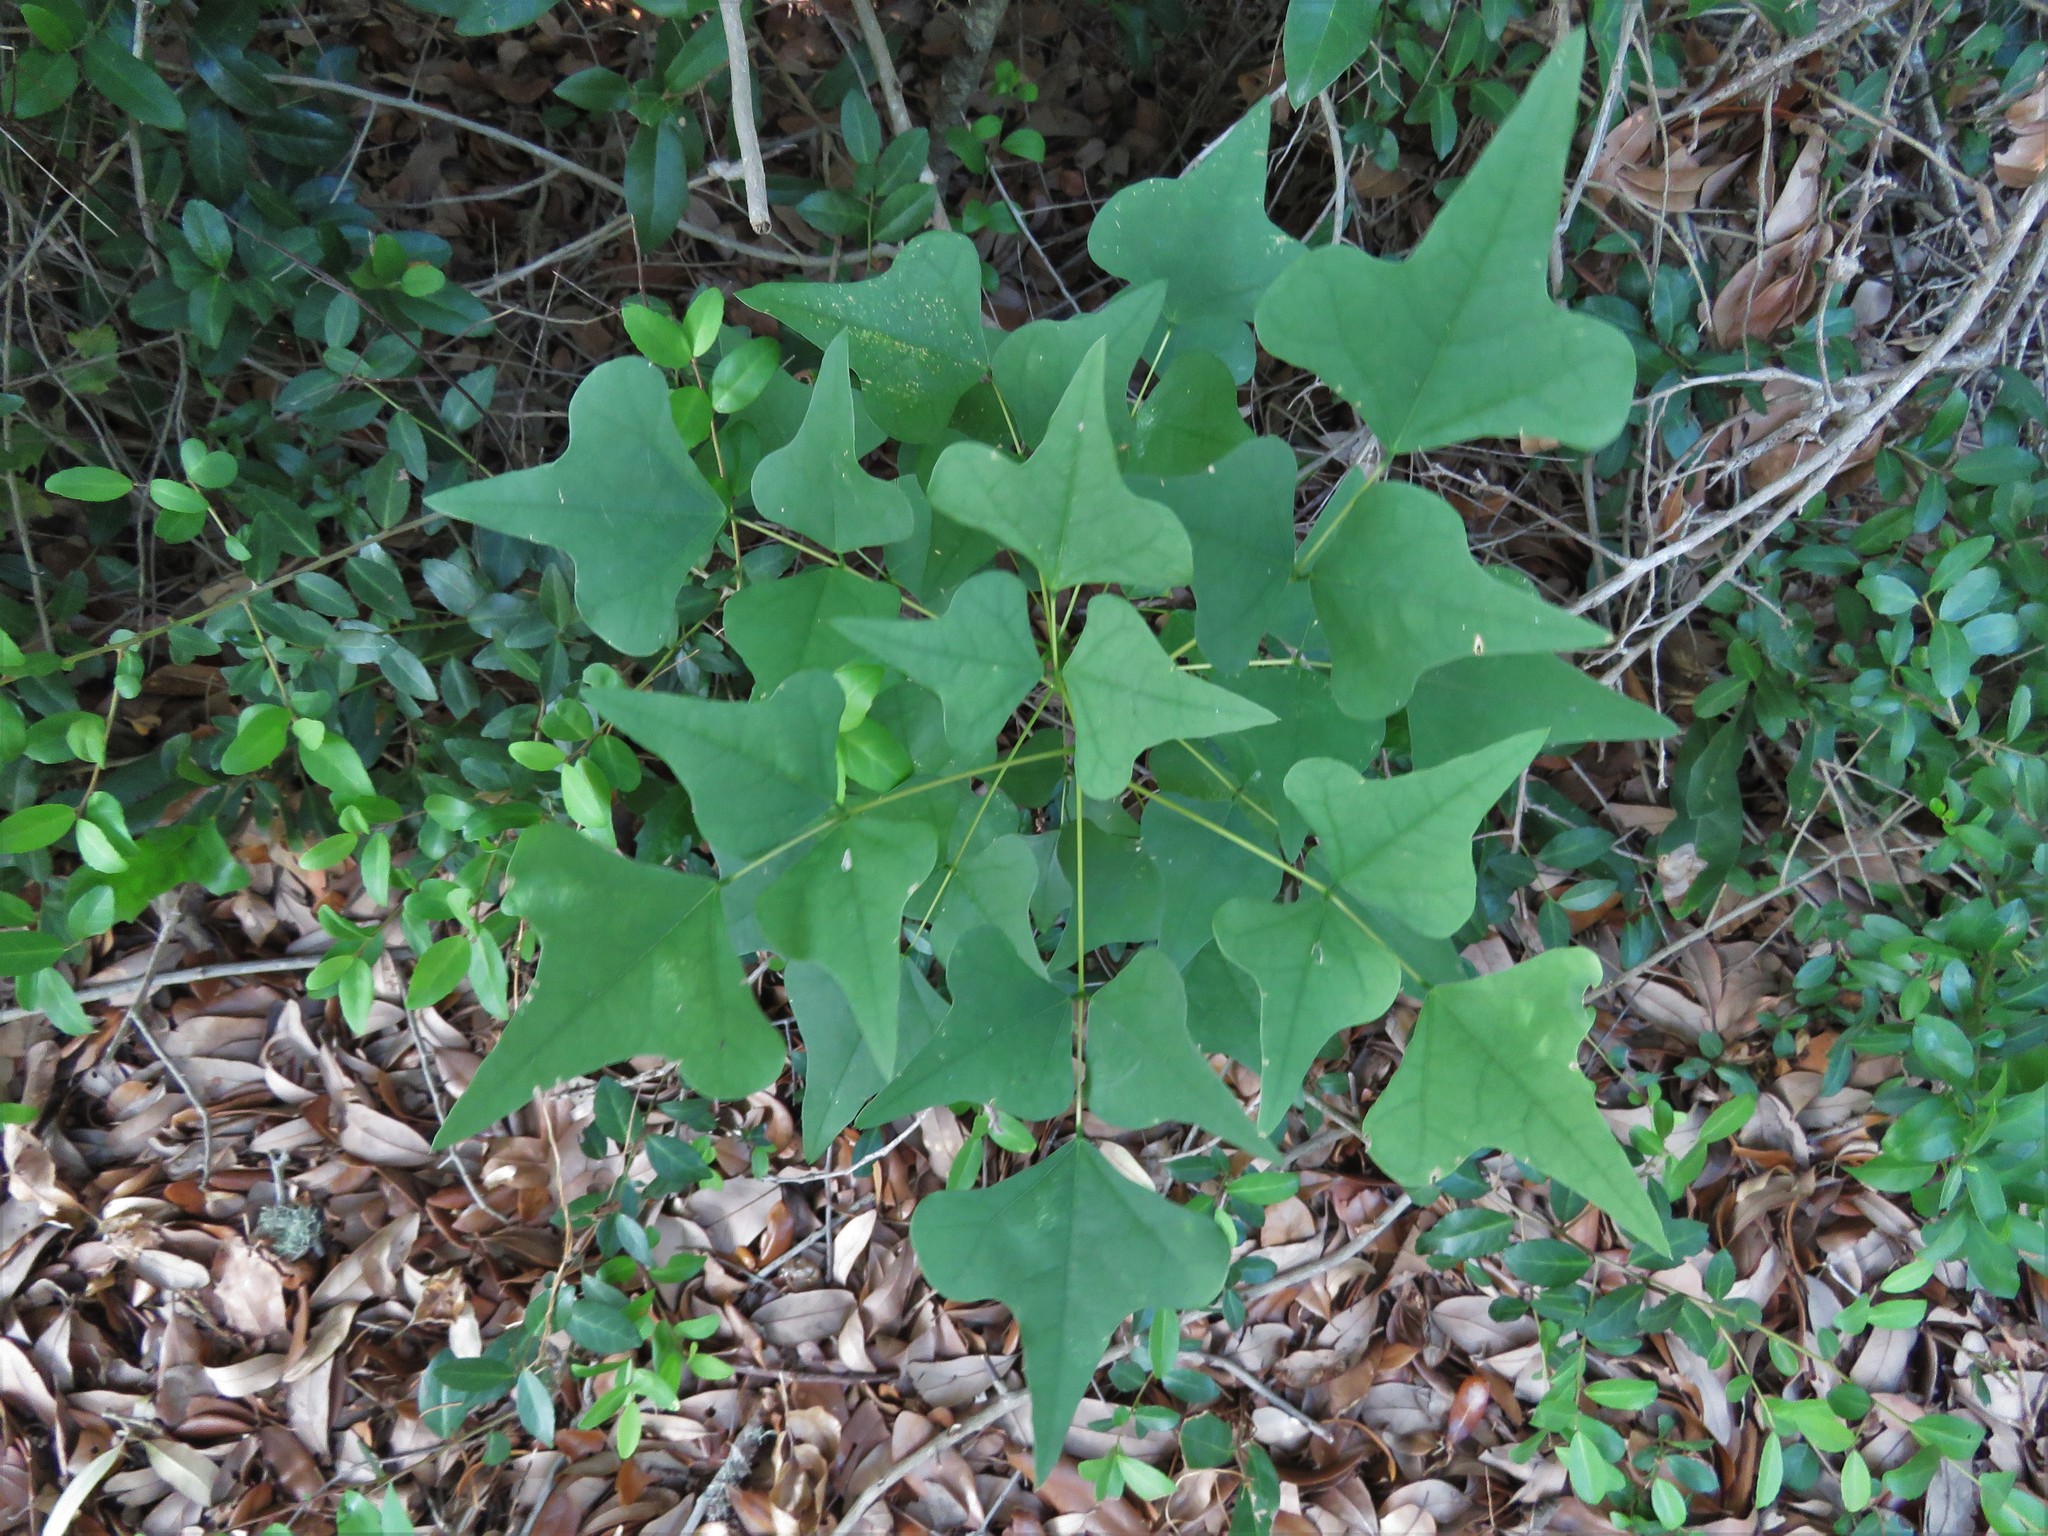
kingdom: Plantae
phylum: Tracheophyta
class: Magnoliopsida
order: Fabales
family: Fabaceae
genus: Erythrina
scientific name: Erythrina herbacea
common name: Coral-bean
